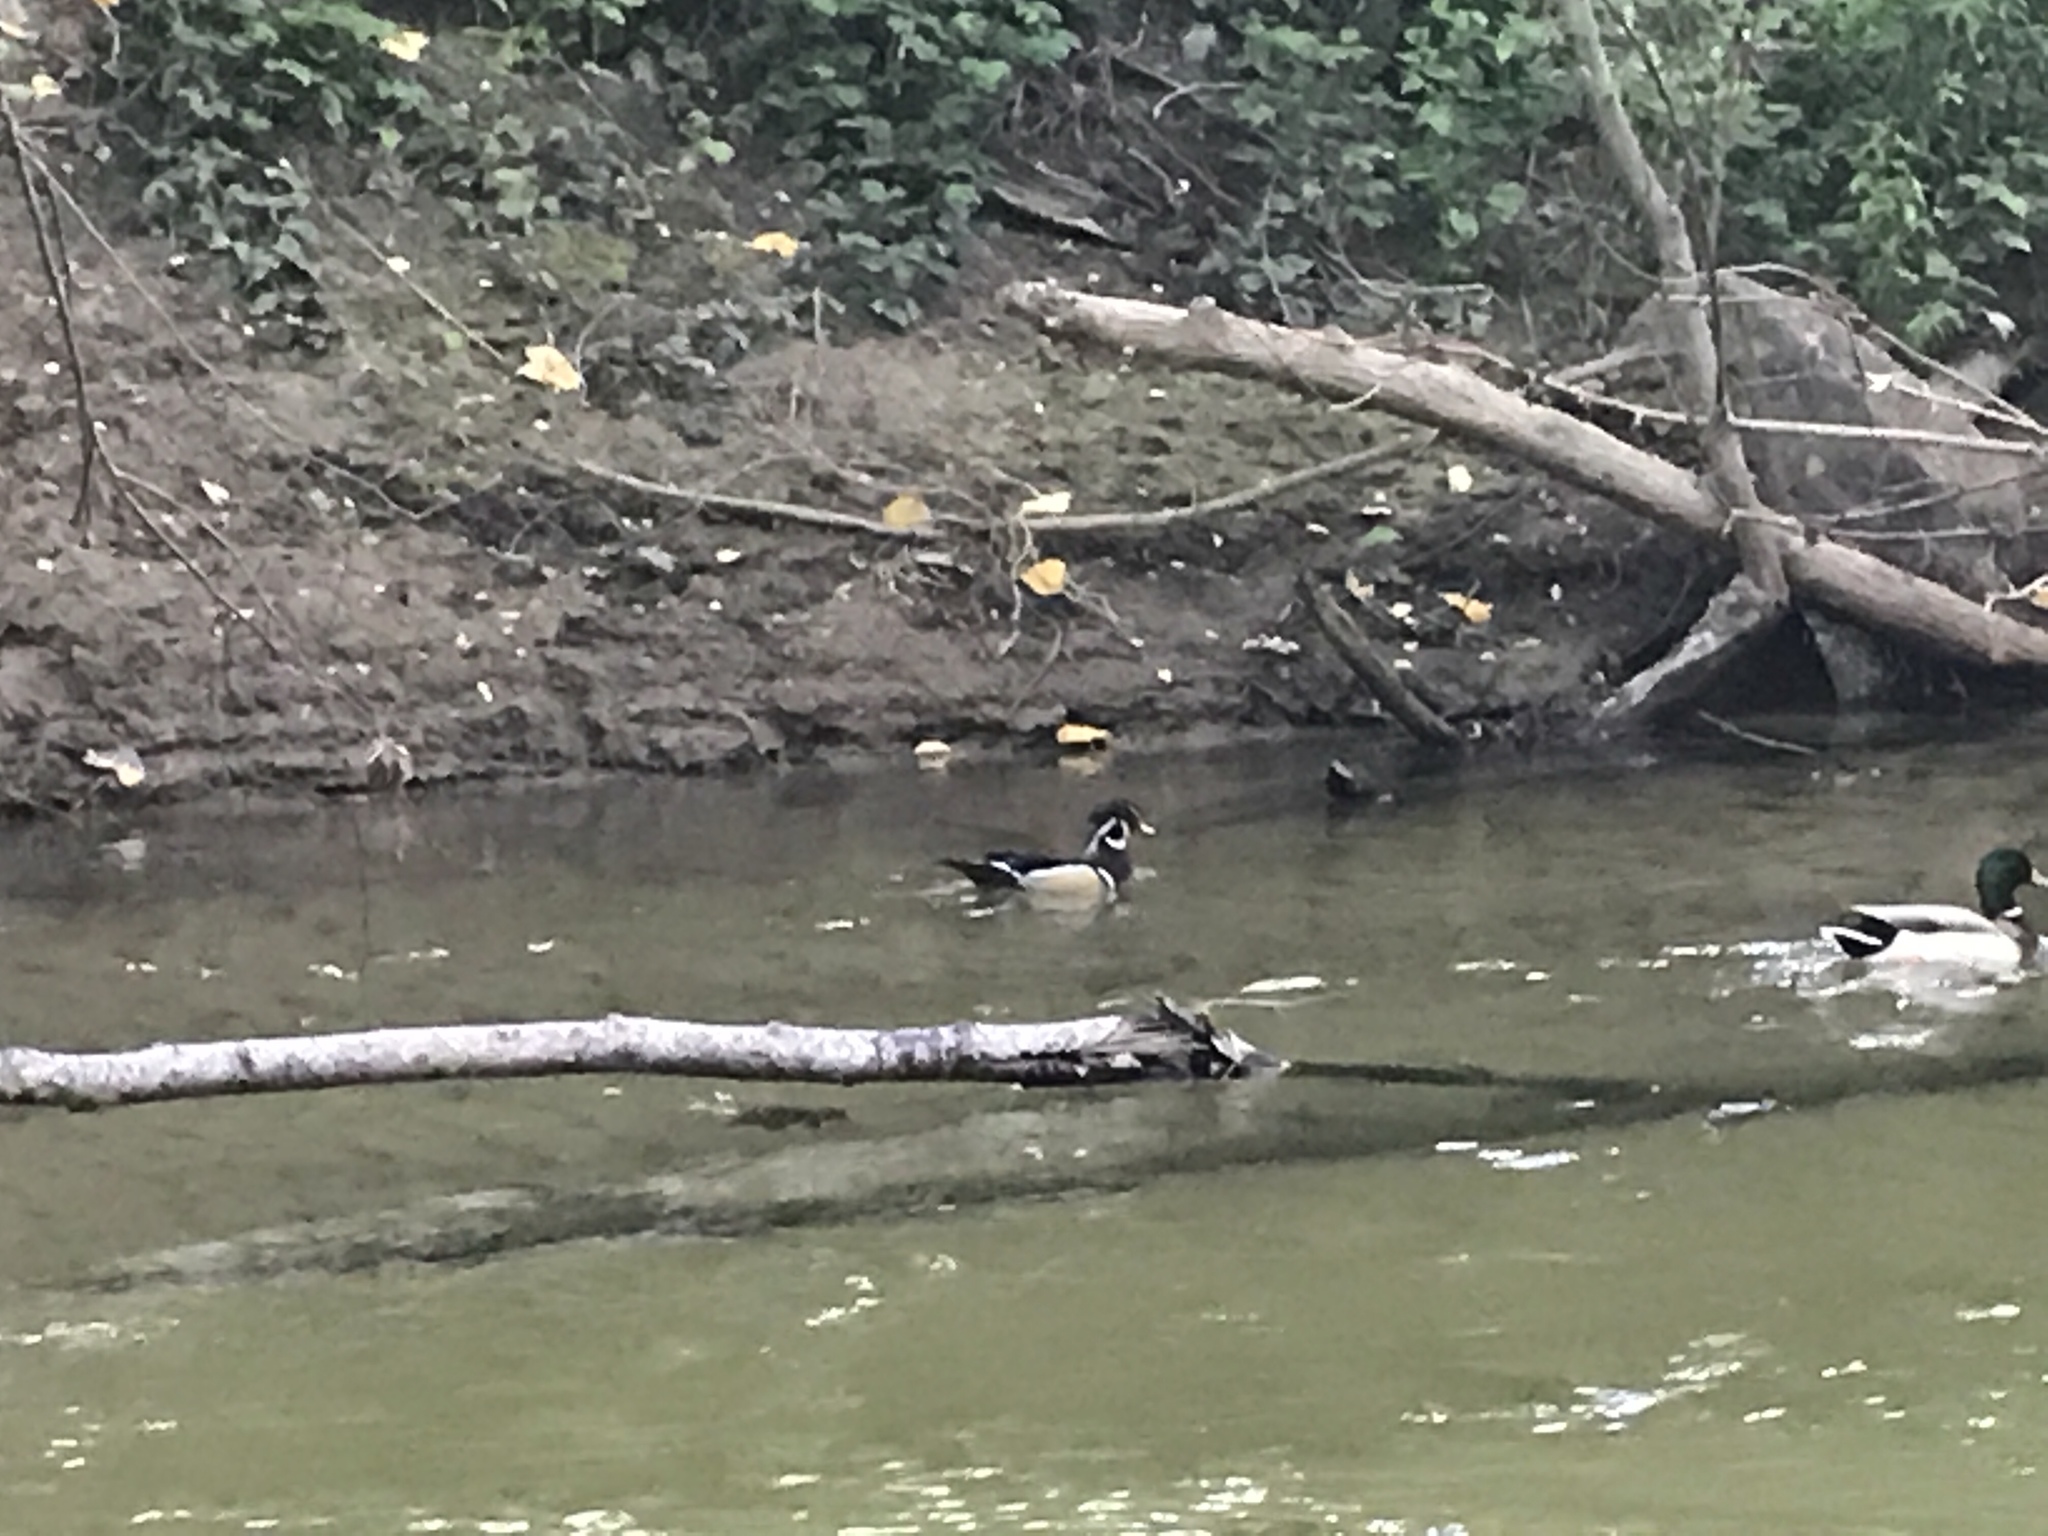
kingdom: Animalia
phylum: Chordata
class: Aves
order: Anseriformes
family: Anatidae
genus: Aix
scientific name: Aix sponsa
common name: Wood duck
